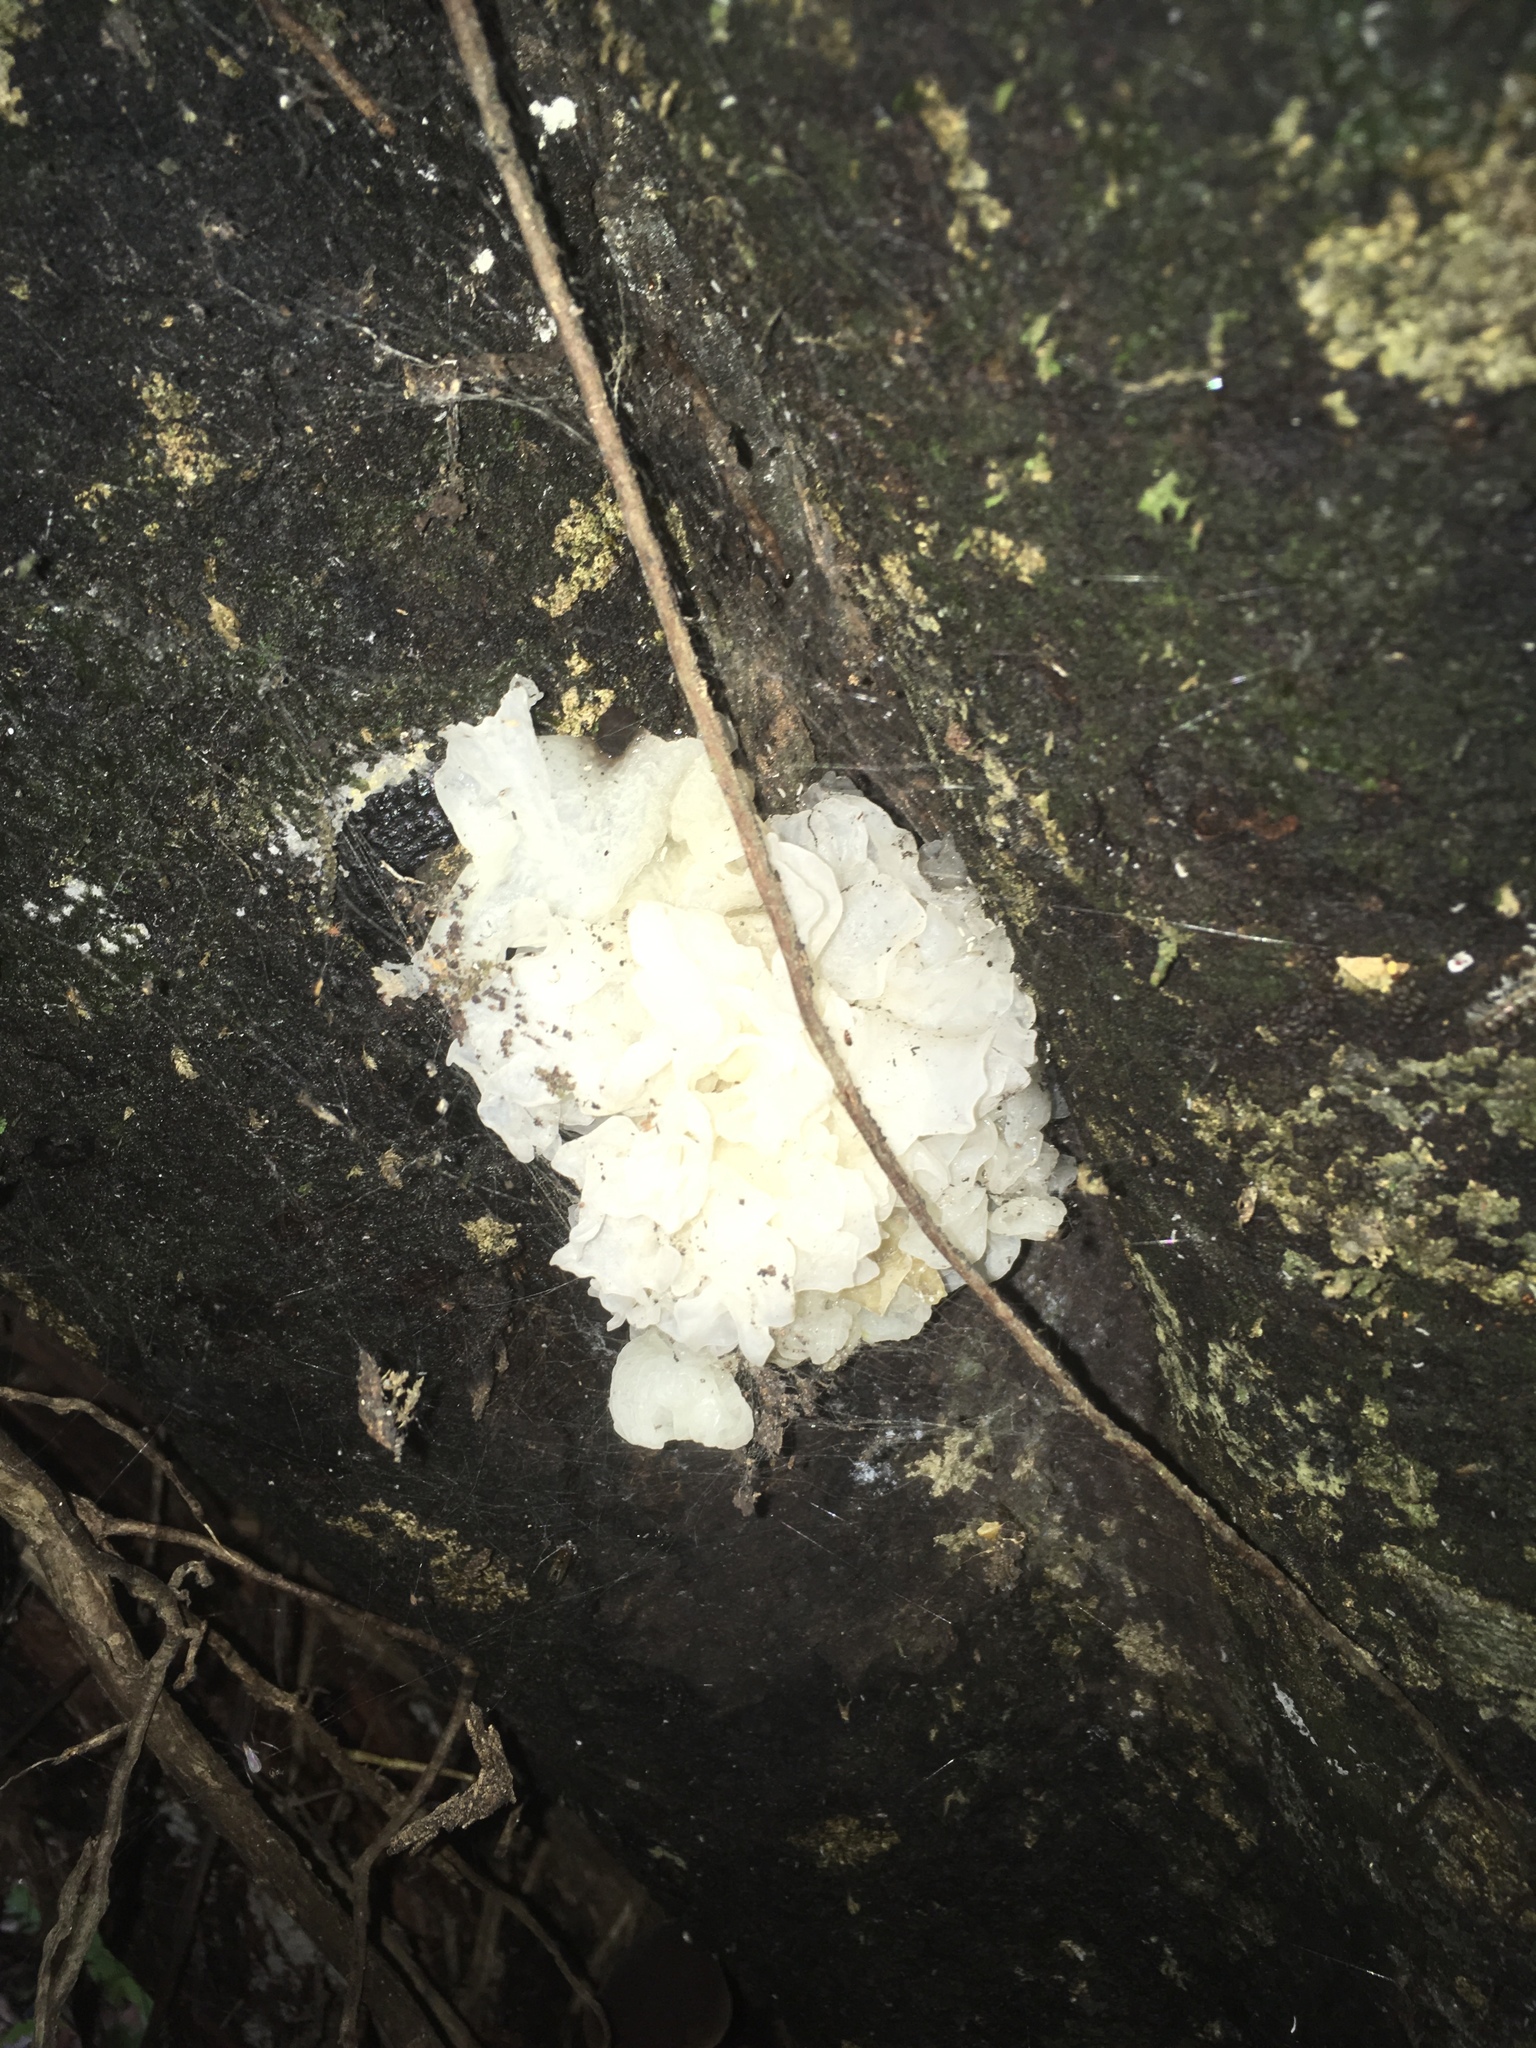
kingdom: Fungi
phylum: Basidiomycota
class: Tremellomycetes
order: Tremellales
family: Tremellaceae
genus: Tremella
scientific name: Tremella fuciformis
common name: Snow fungus
